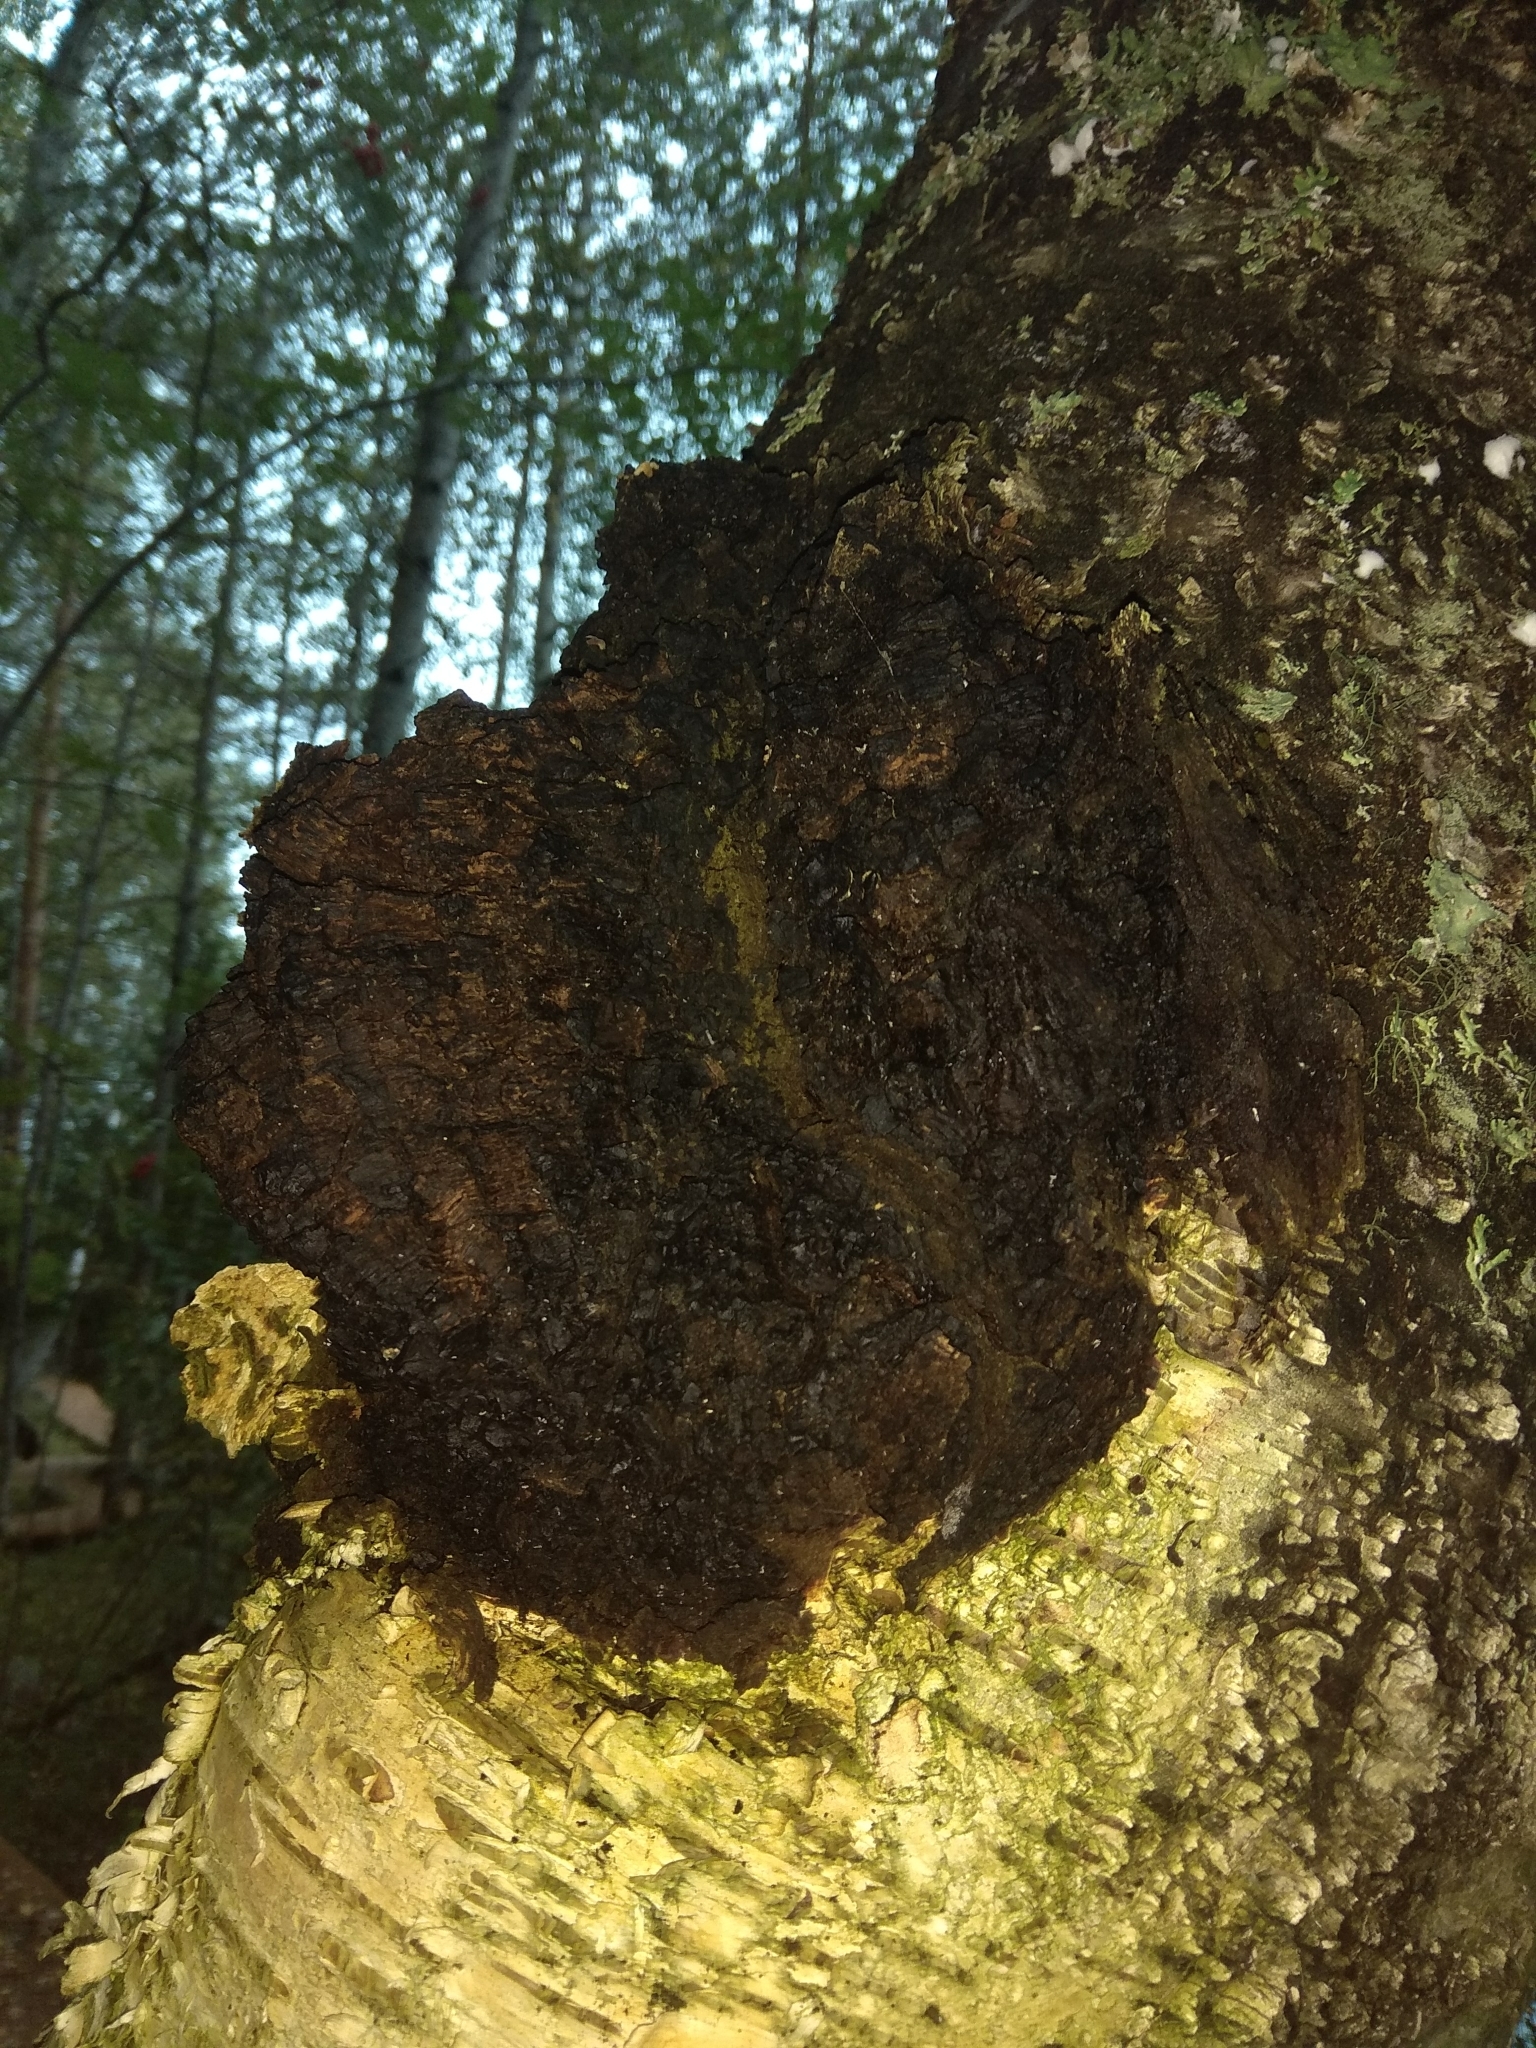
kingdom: Fungi
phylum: Basidiomycota
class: Agaricomycetes
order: Hymenochaetales
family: Hymenochaetaceae
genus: Inonotus
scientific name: Inonotus obliquus
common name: Chaga
